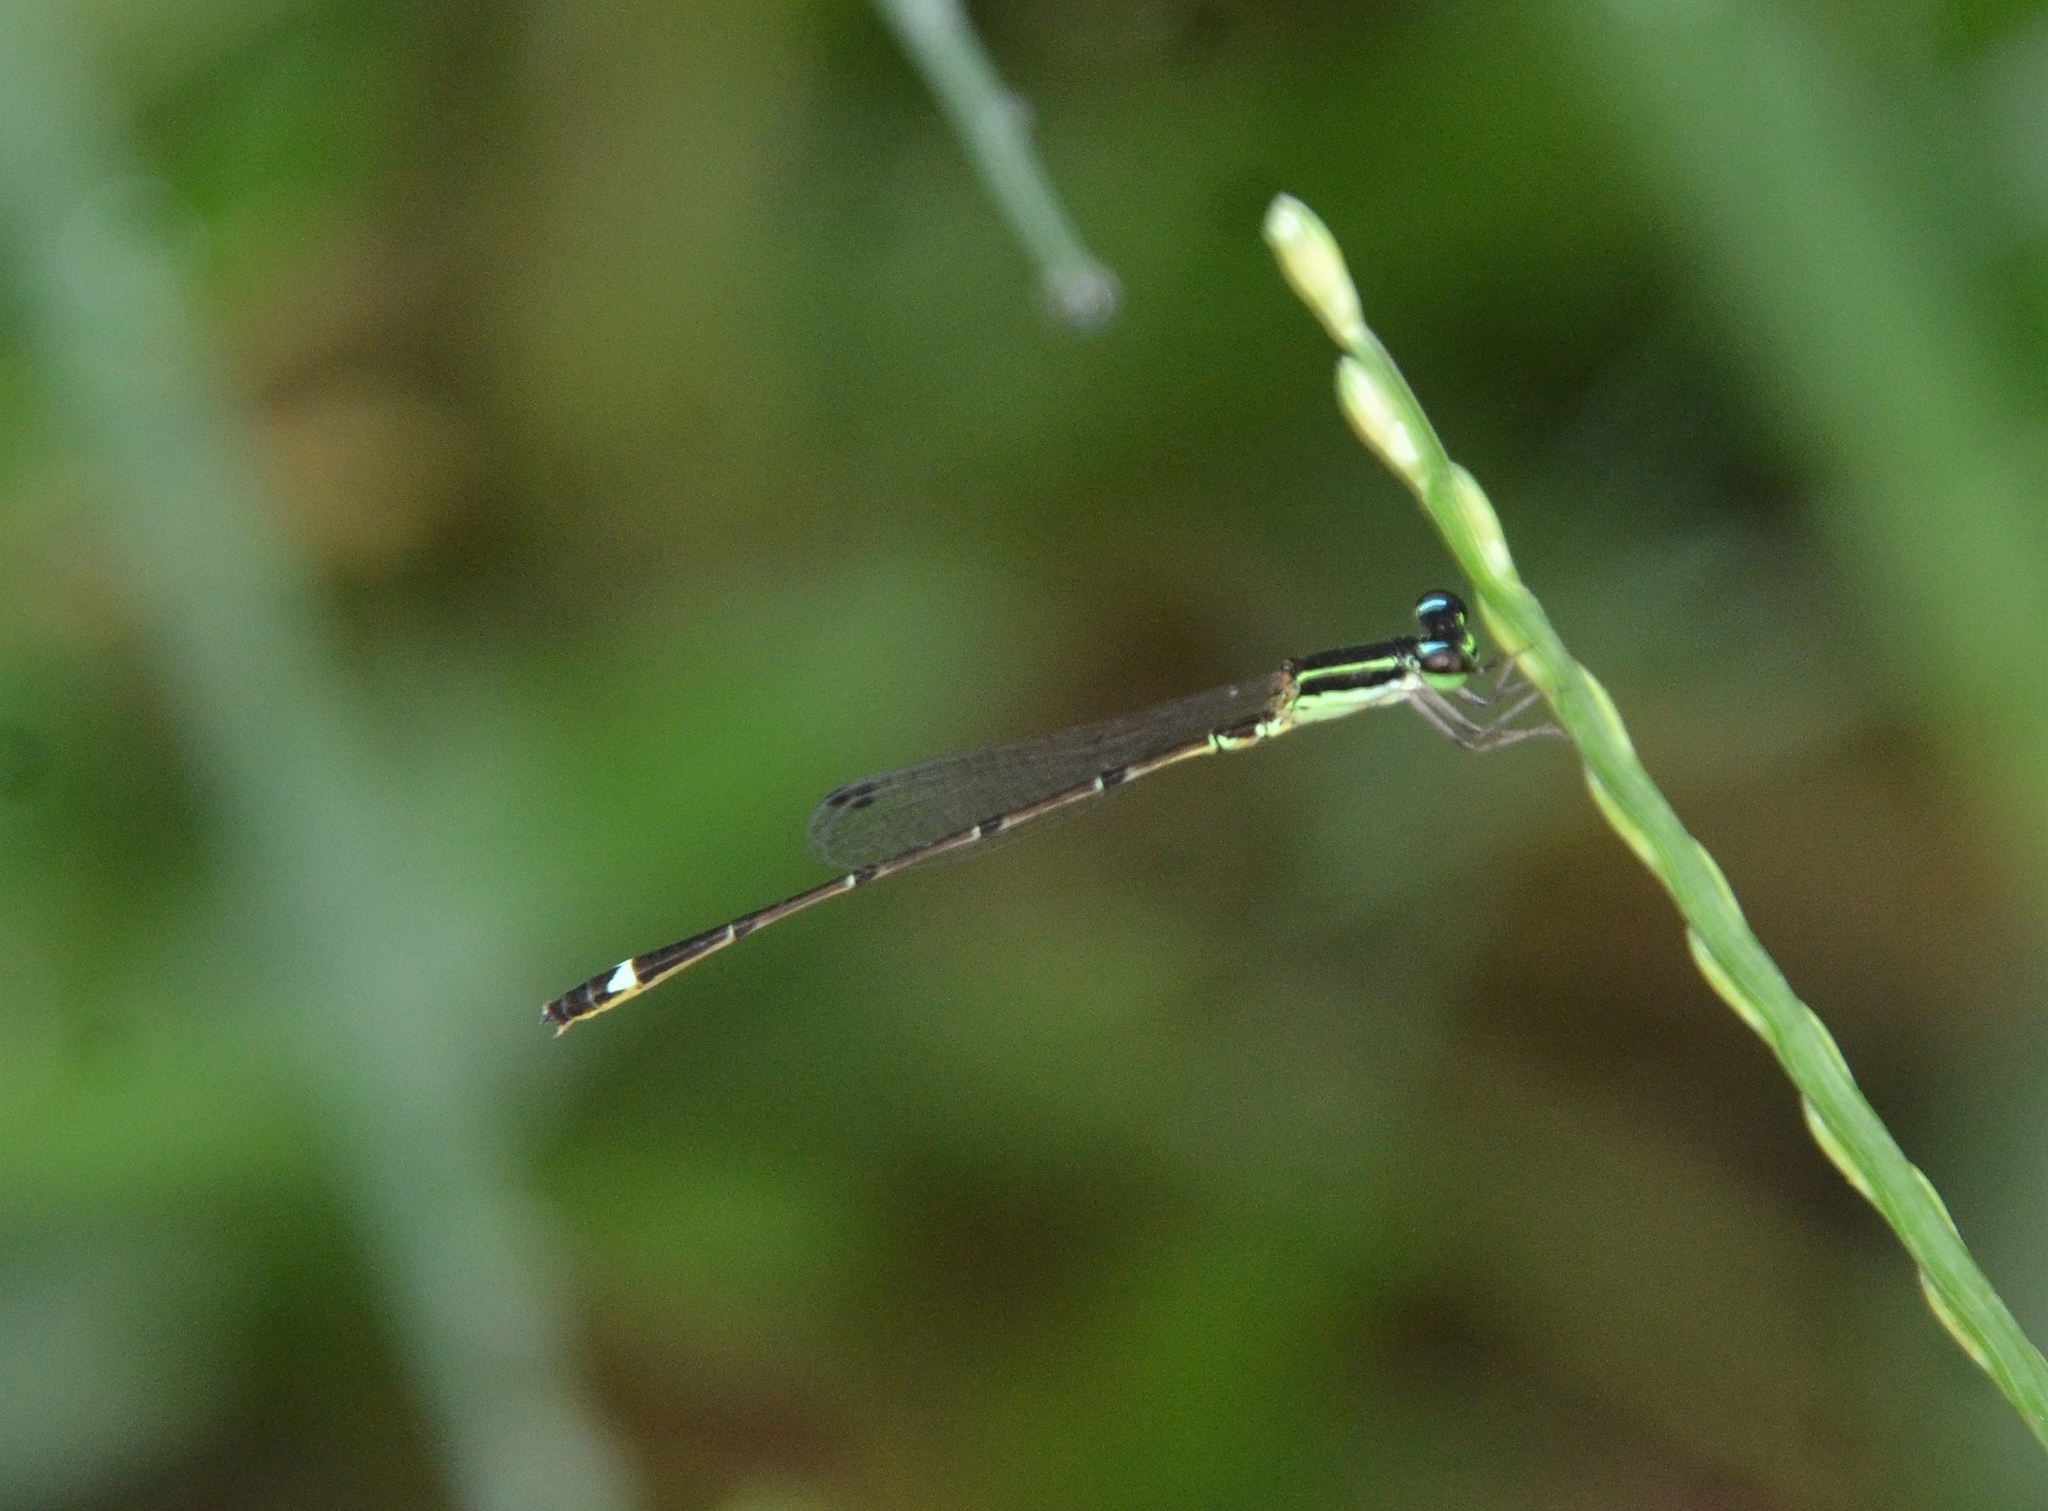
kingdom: Animalia
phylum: Arthropoda
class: Insecta
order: Odonata
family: Coenagrionidae
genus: Mortonagrion
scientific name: Mortonagrion varralli
